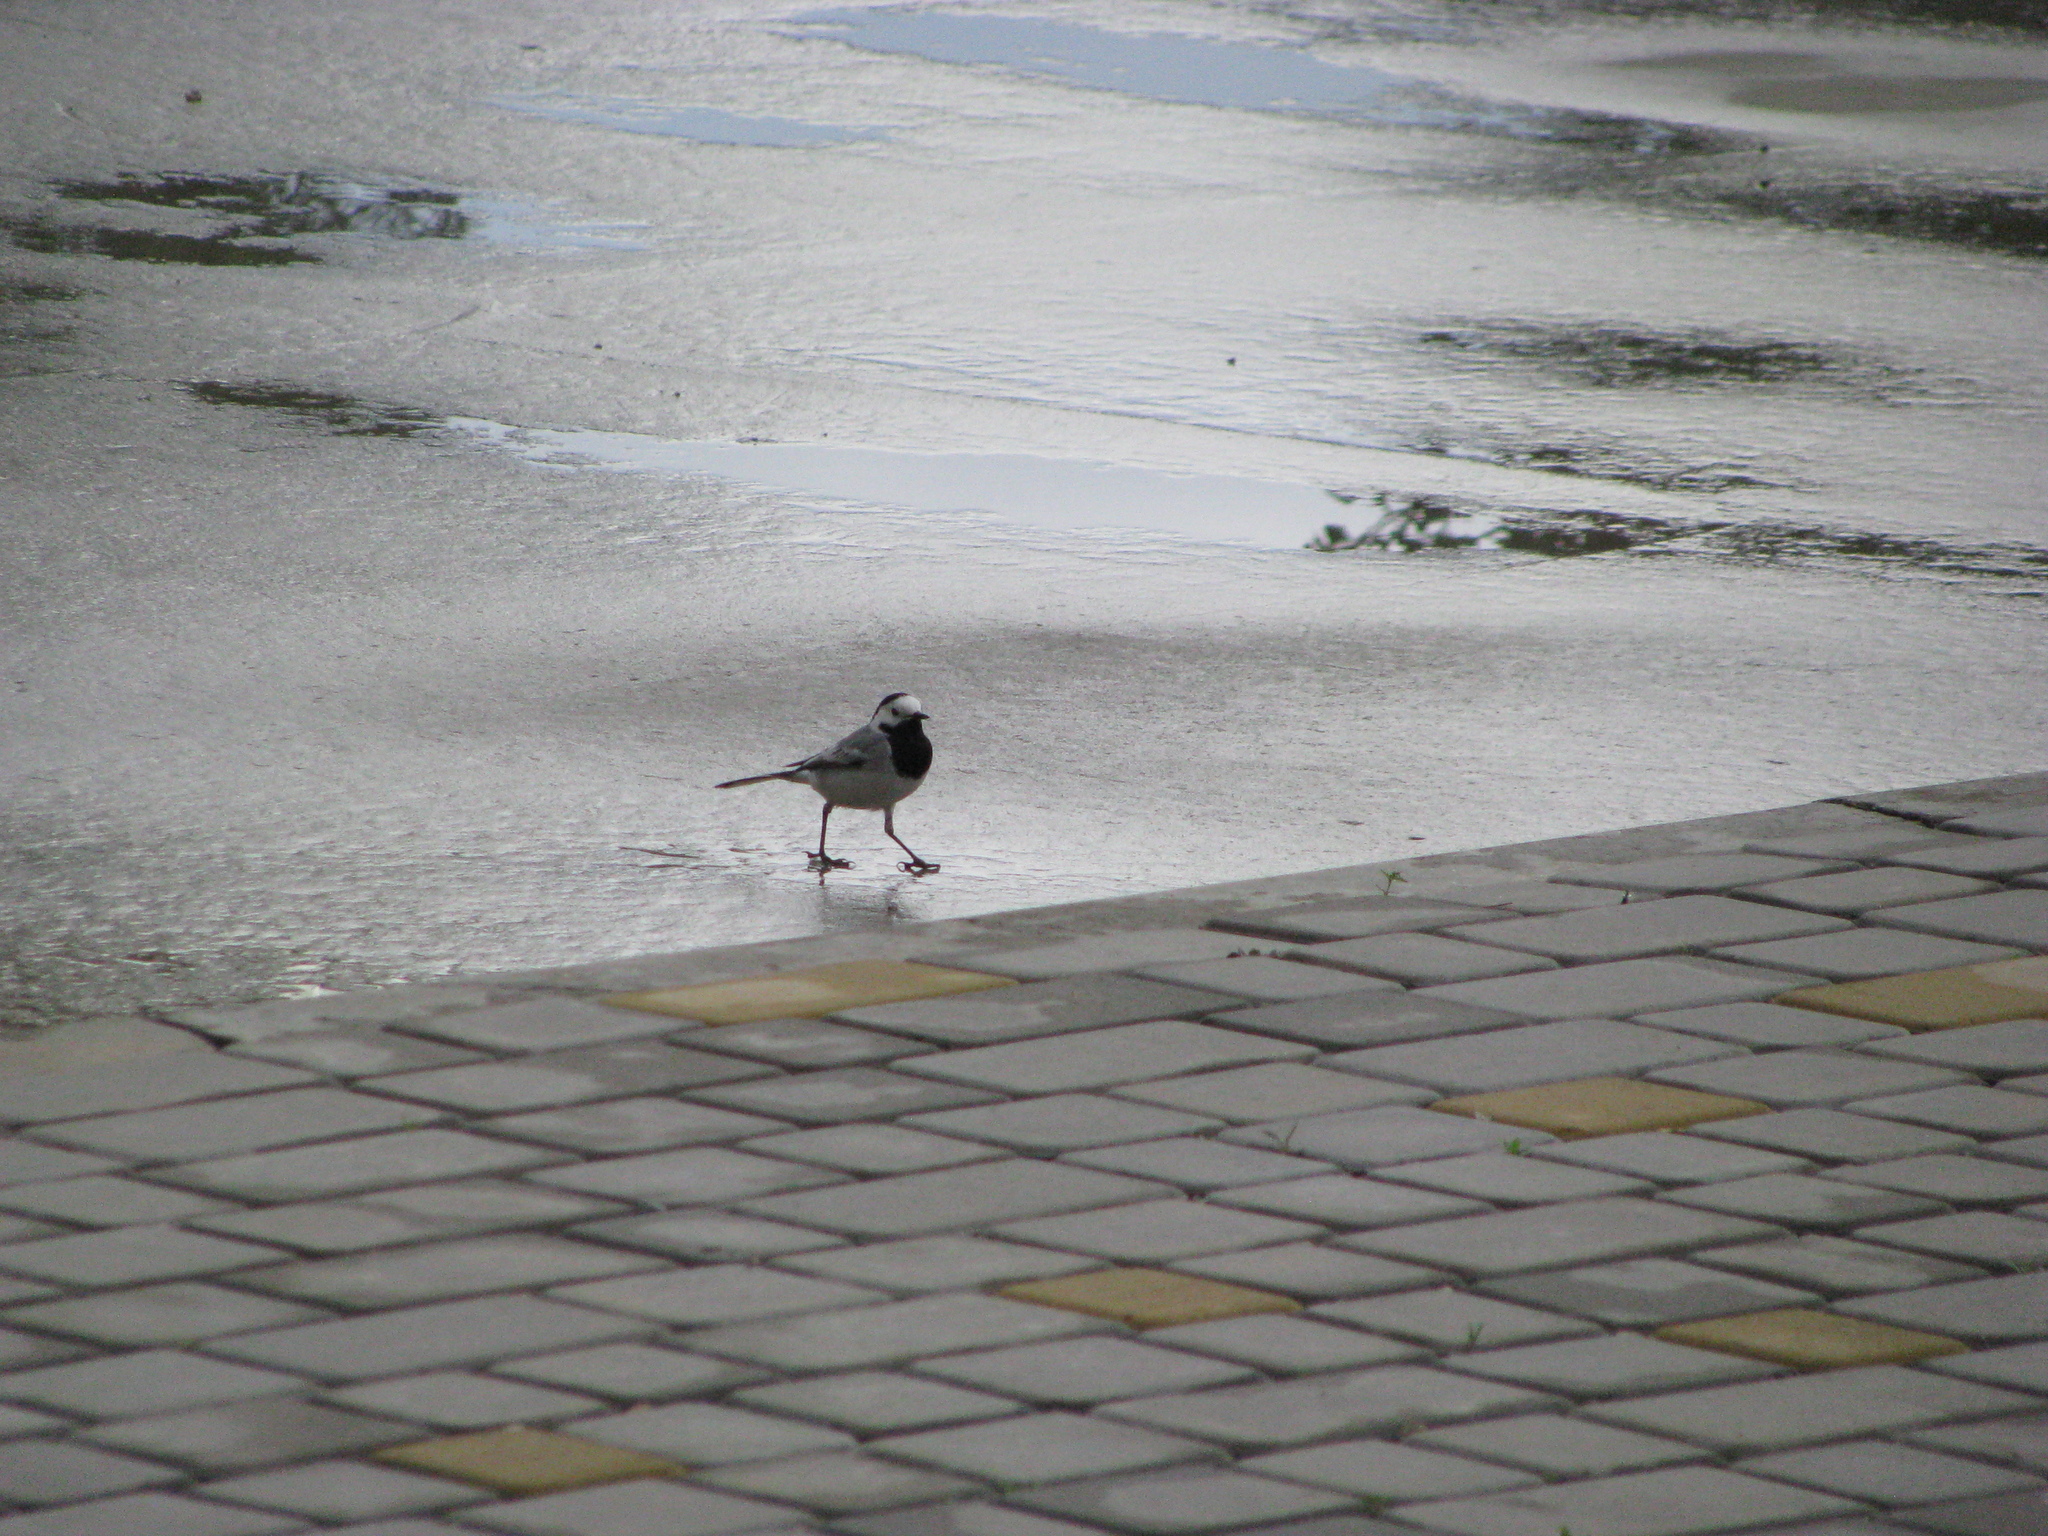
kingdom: Animalia
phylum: Chordata
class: Aves
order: Passeriformes
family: Motacillidae
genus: Motacilla
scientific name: Motacilla alba
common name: White wagtail
